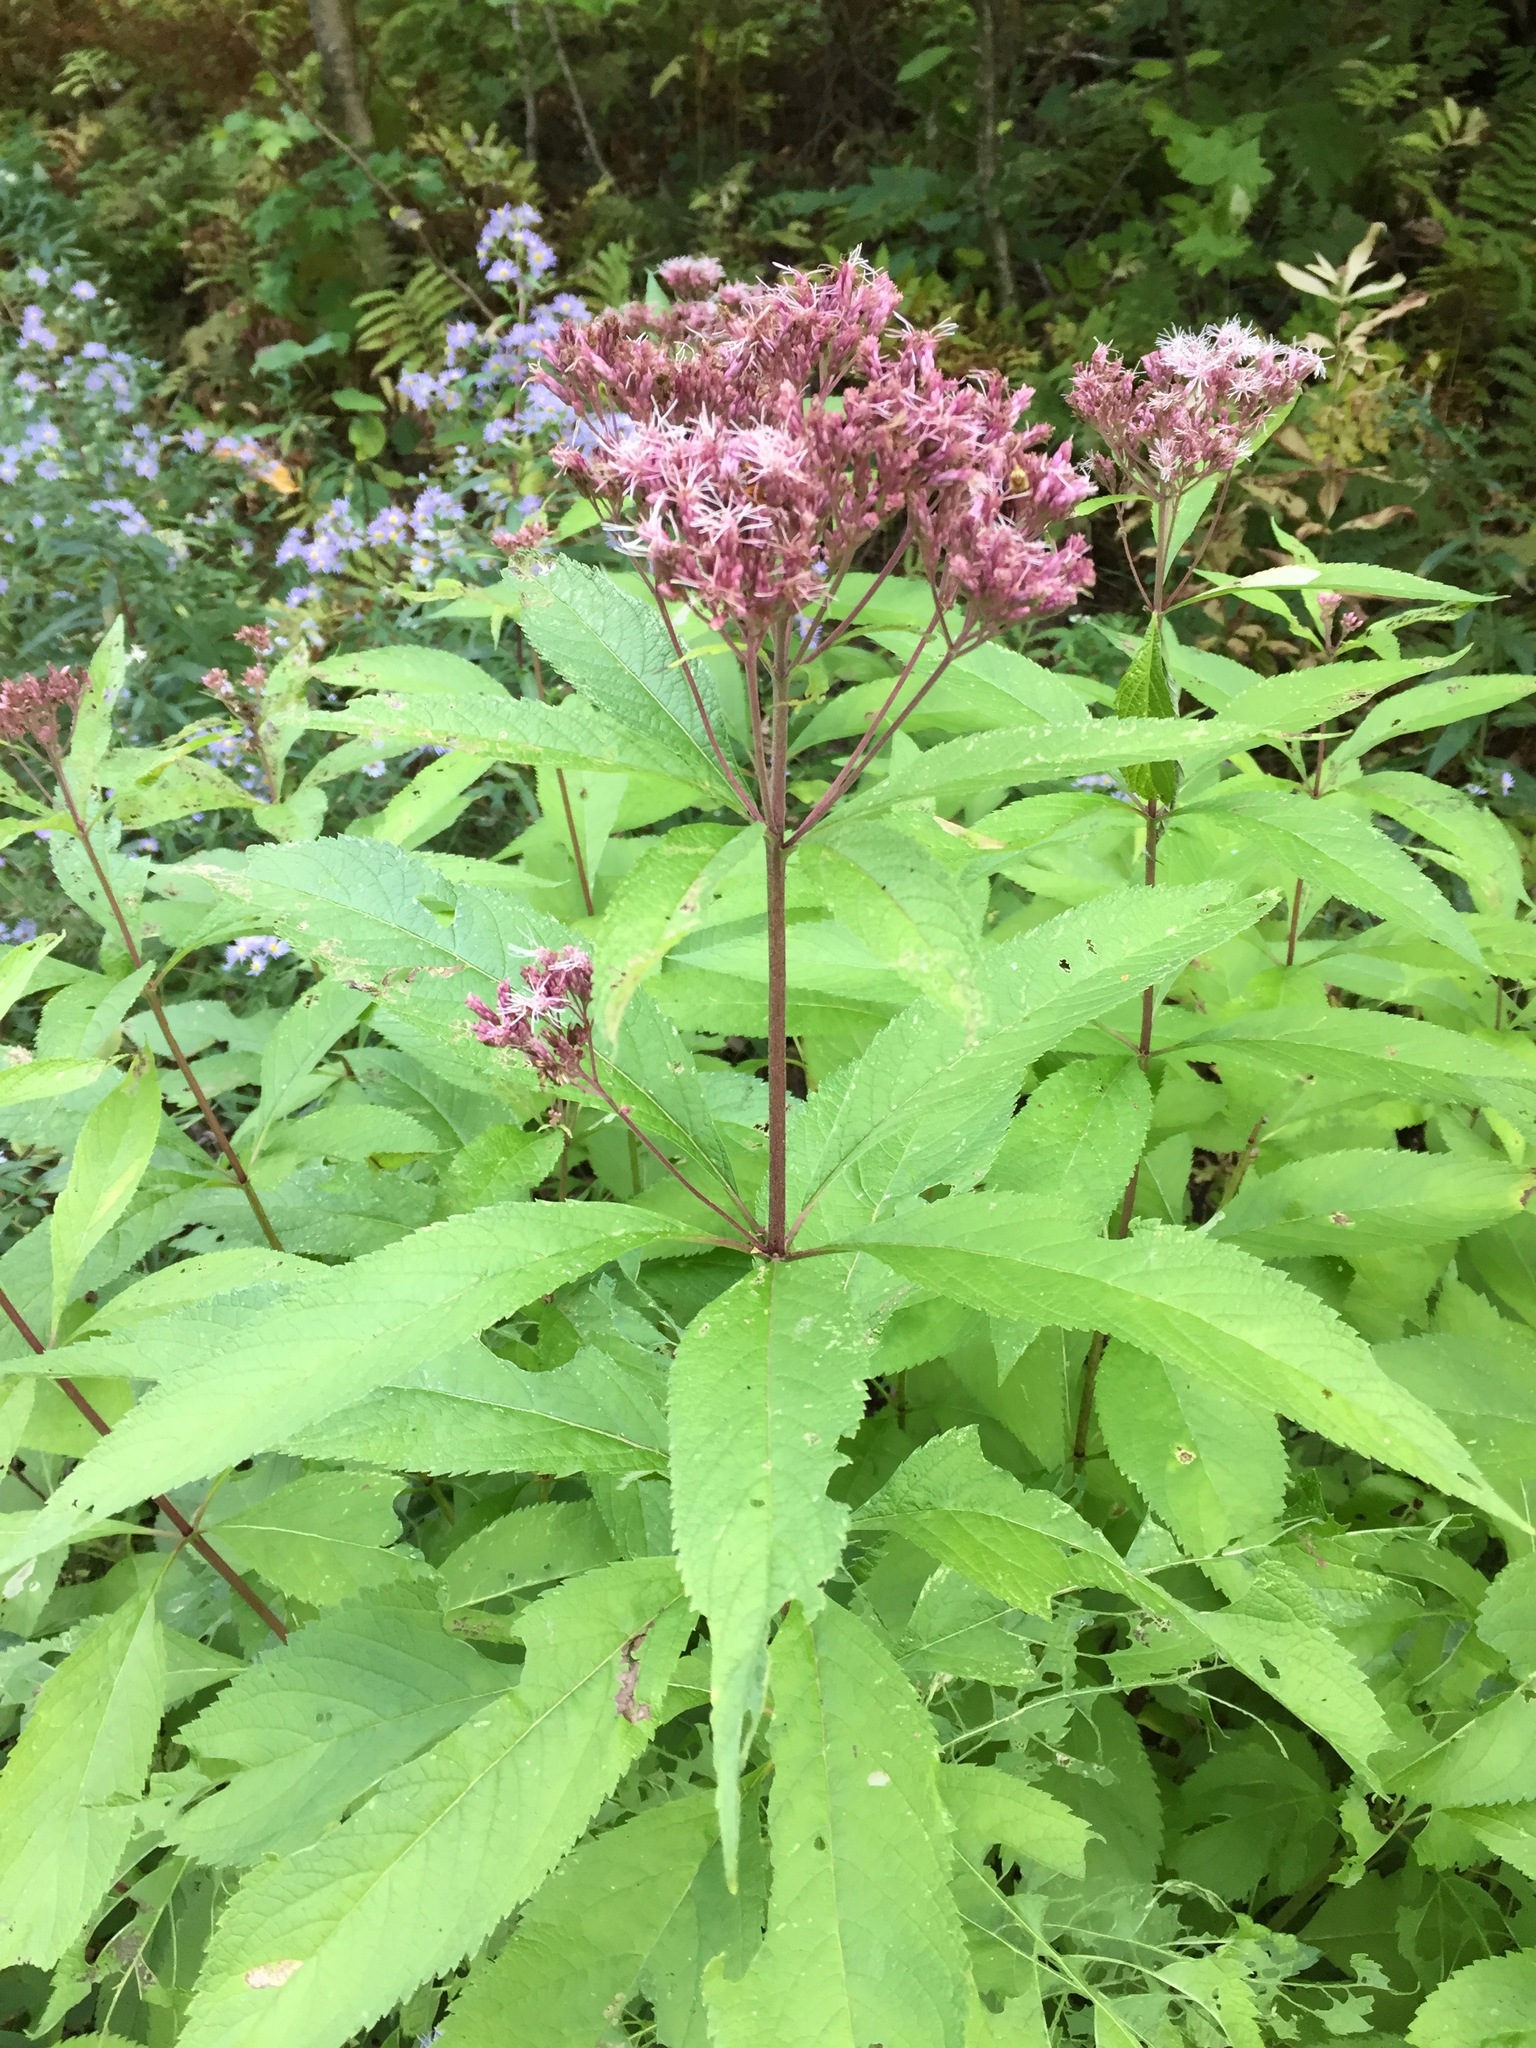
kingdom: Plantae
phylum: Tracheophyta
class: Magnoliopsida
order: Asterales
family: Asteraceae
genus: Eutrochium
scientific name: Eutrochium maculatum
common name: Spotted joe pye weed
